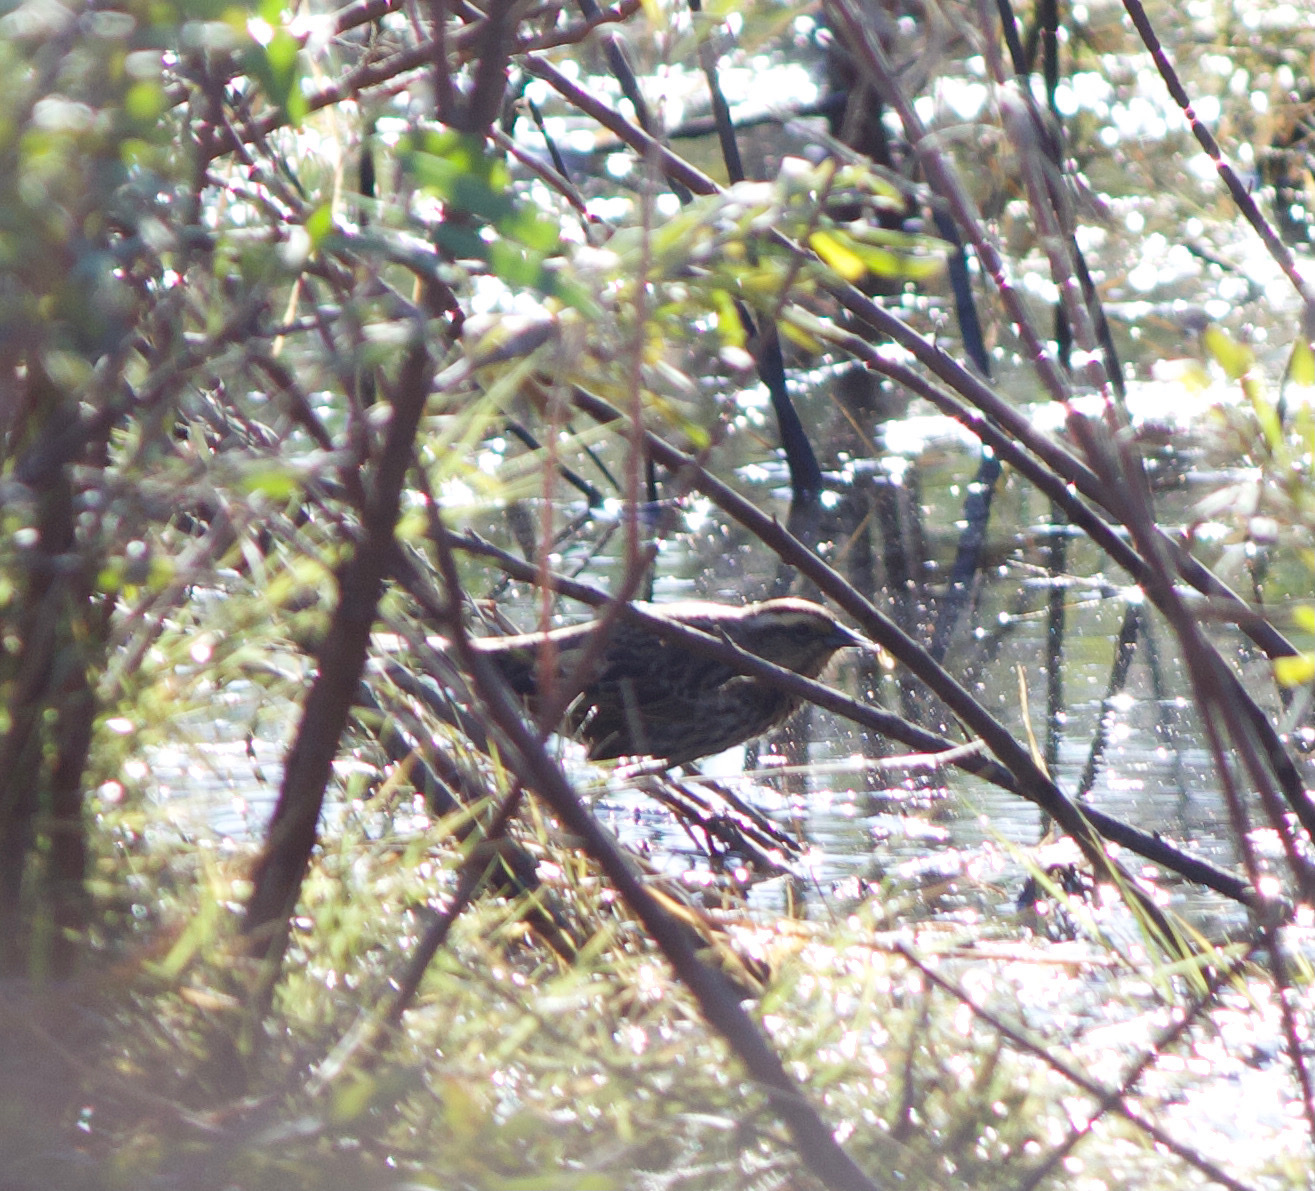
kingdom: Animalia
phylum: Chordata
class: Aves
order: Passeriformes
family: Icteridae
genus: Agelasticus
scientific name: Agelasticus thilius
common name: Yellow-winged blackbird
